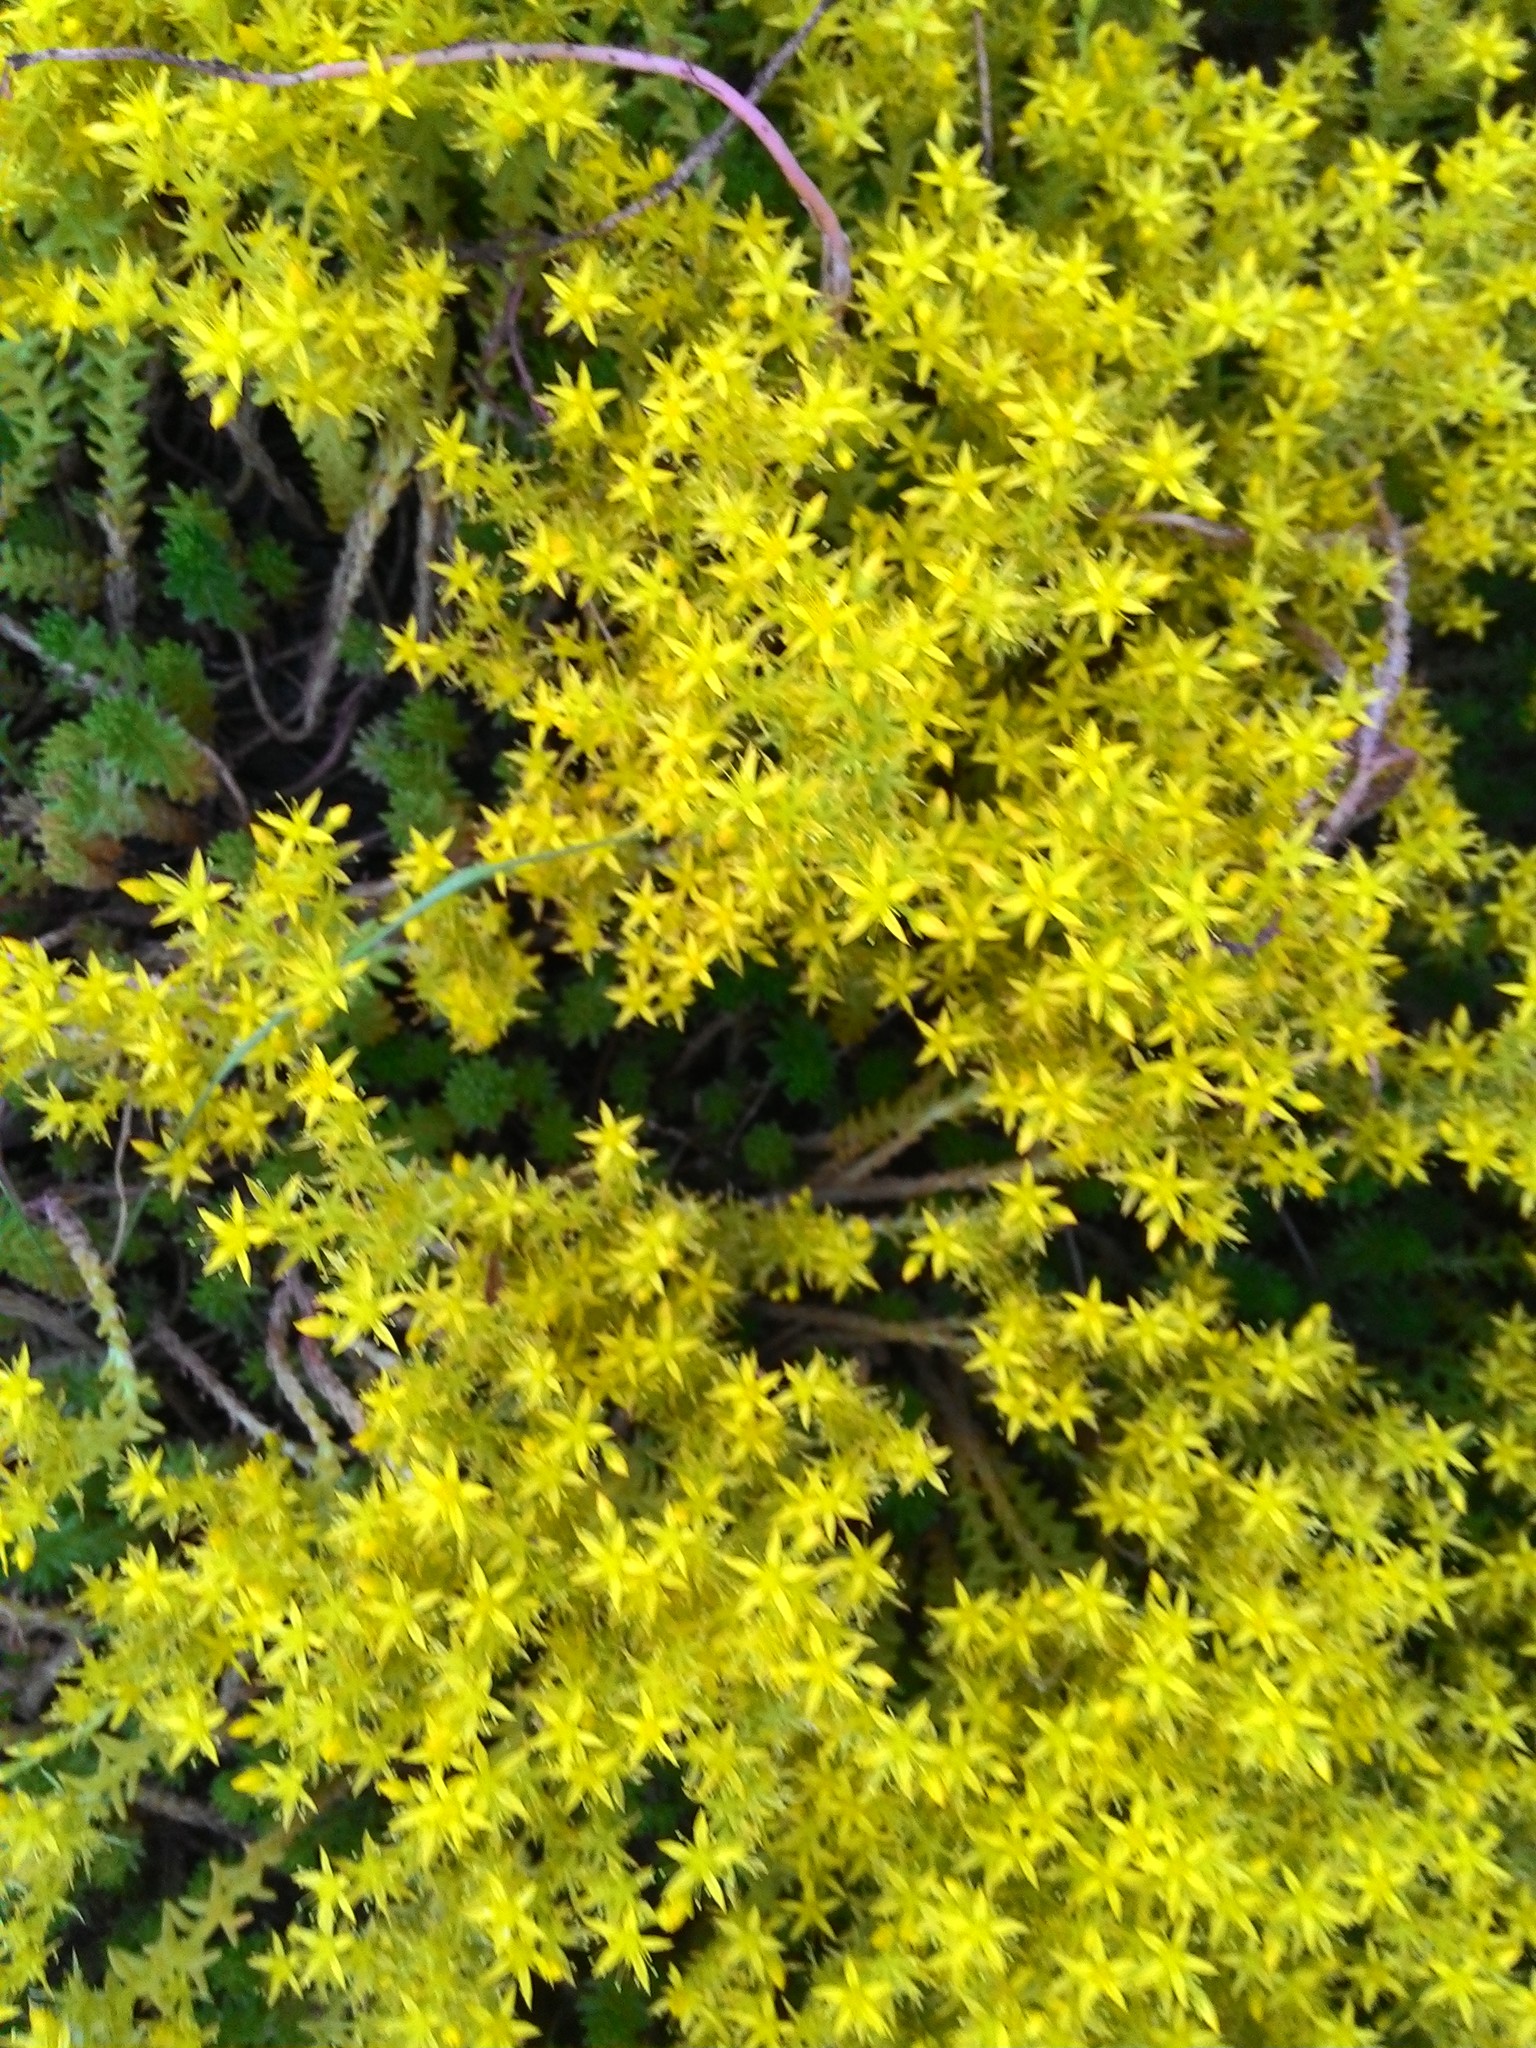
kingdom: Plantae
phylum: Tracheophyta
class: Magnoliopsida
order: Saxifragales
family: Crassulaceae
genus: Sedum
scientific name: Sedum acre
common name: Biting stonecrop
